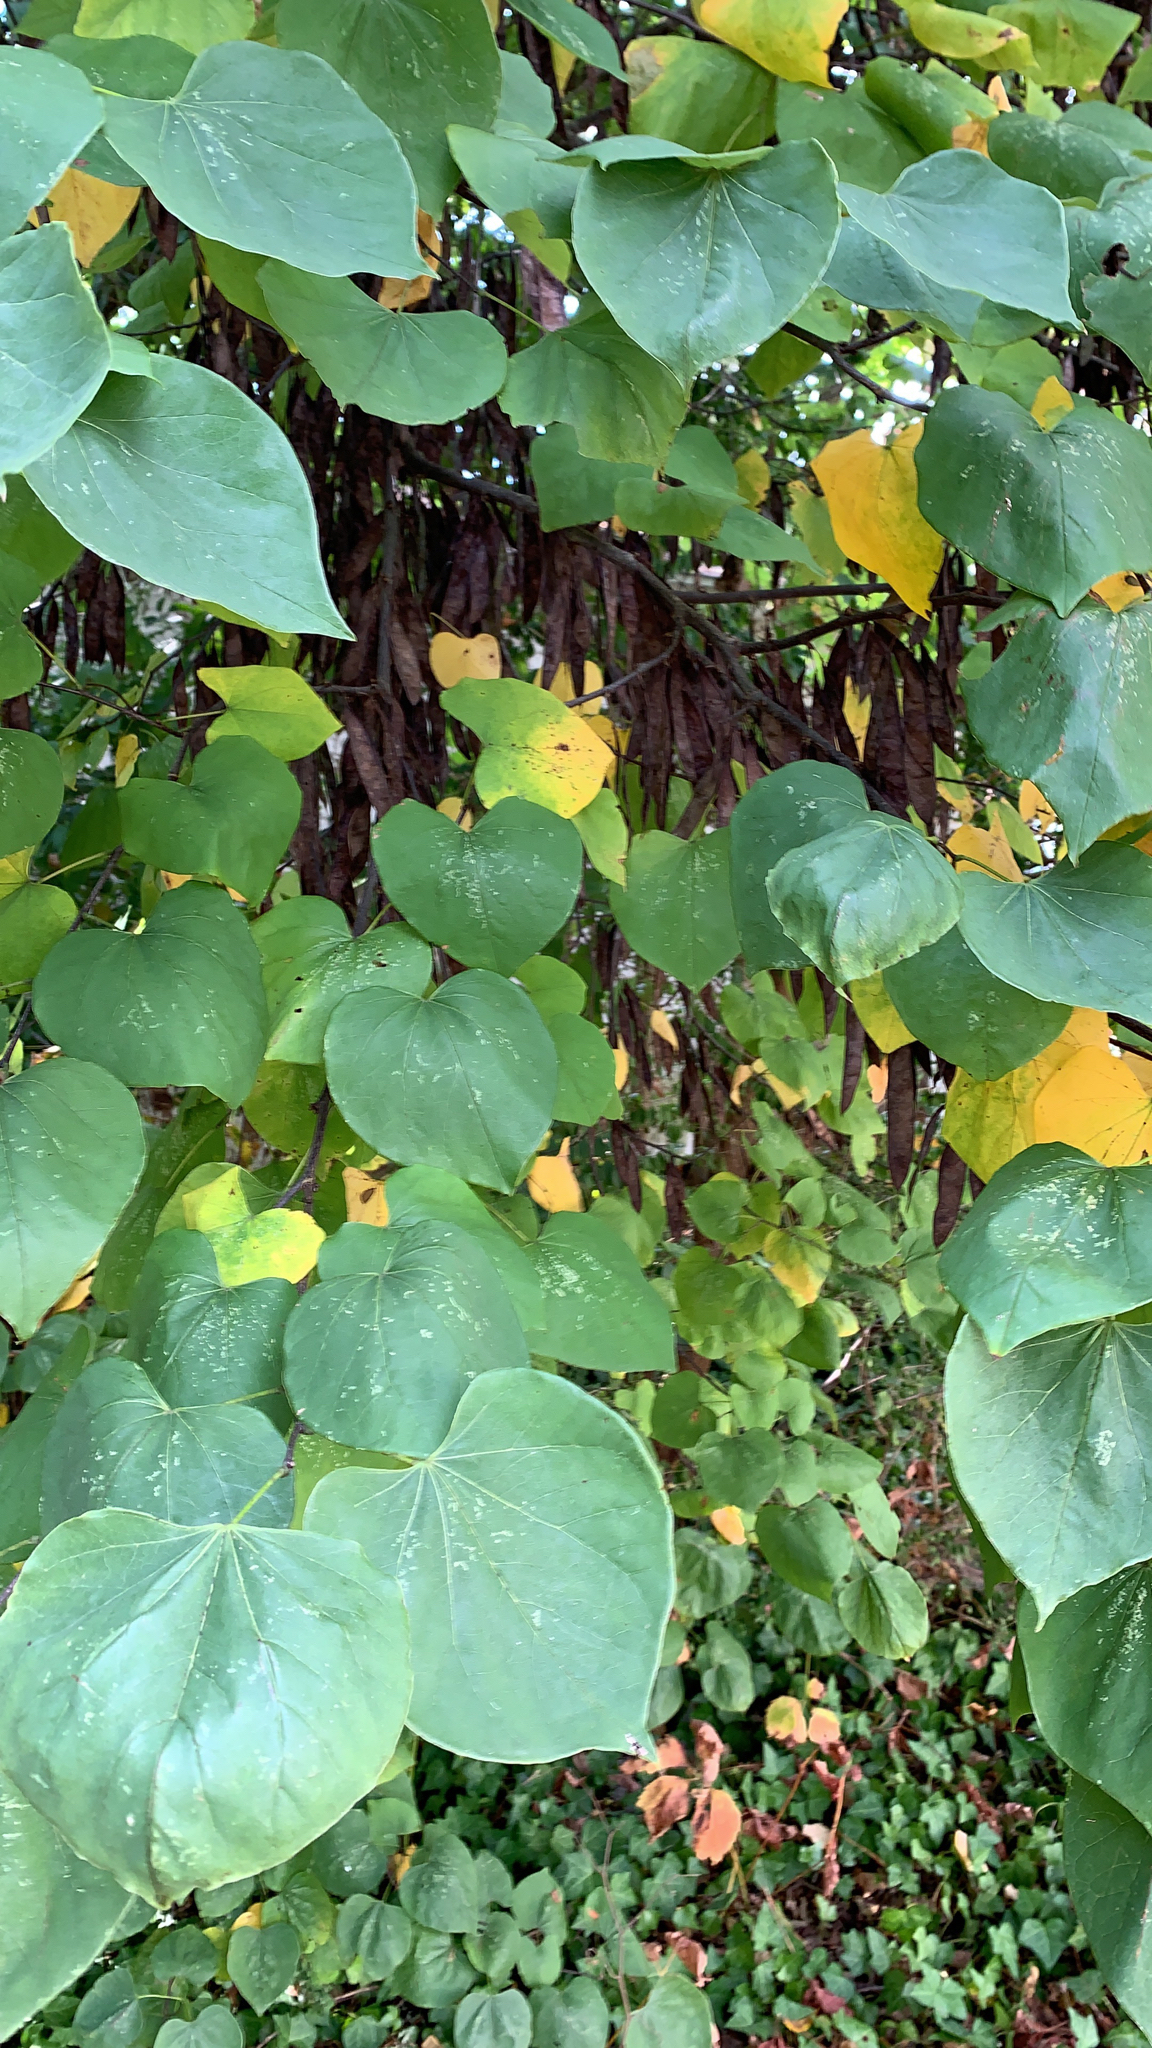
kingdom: Plantae
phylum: Tracheophyta
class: Magnoliopsida
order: Fabales
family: Fabaceae
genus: Cercis
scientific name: Cercis canadensis
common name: Eastern redbud
